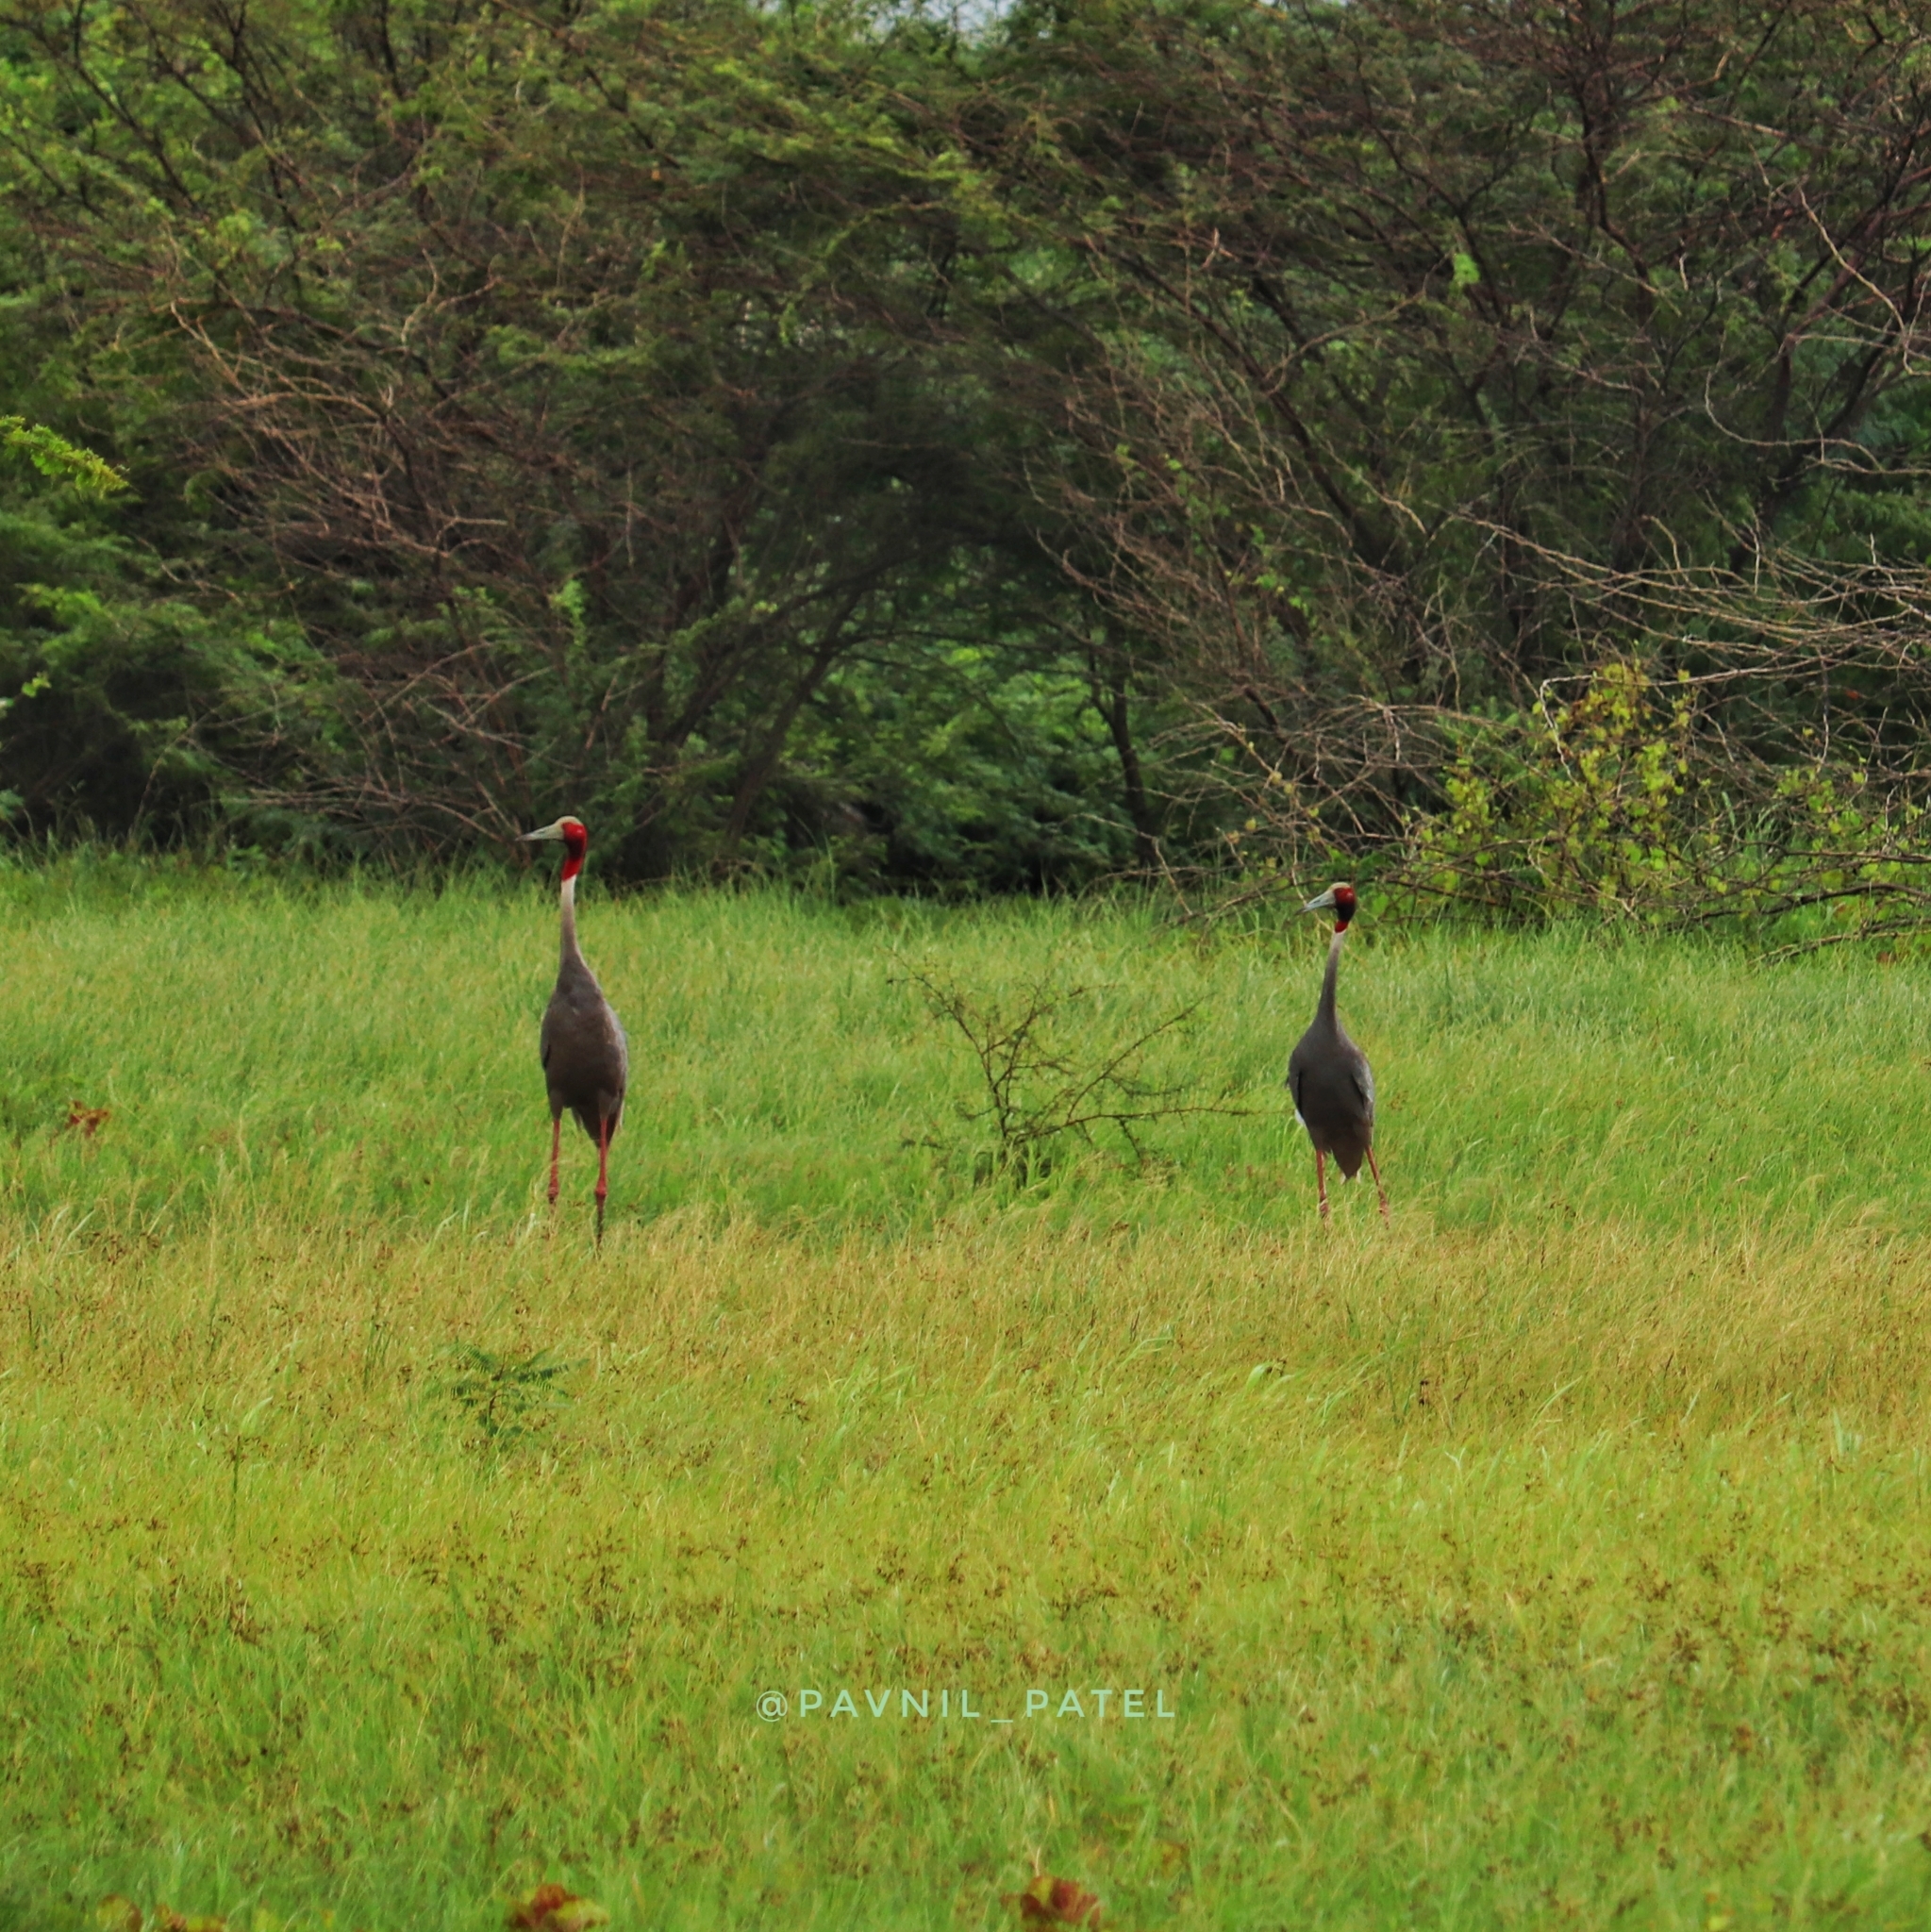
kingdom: Animalia
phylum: Chordata
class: Aves
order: Gruiformes
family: Gruidae
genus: Grus
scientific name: Grus antigone
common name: Sarus crane
